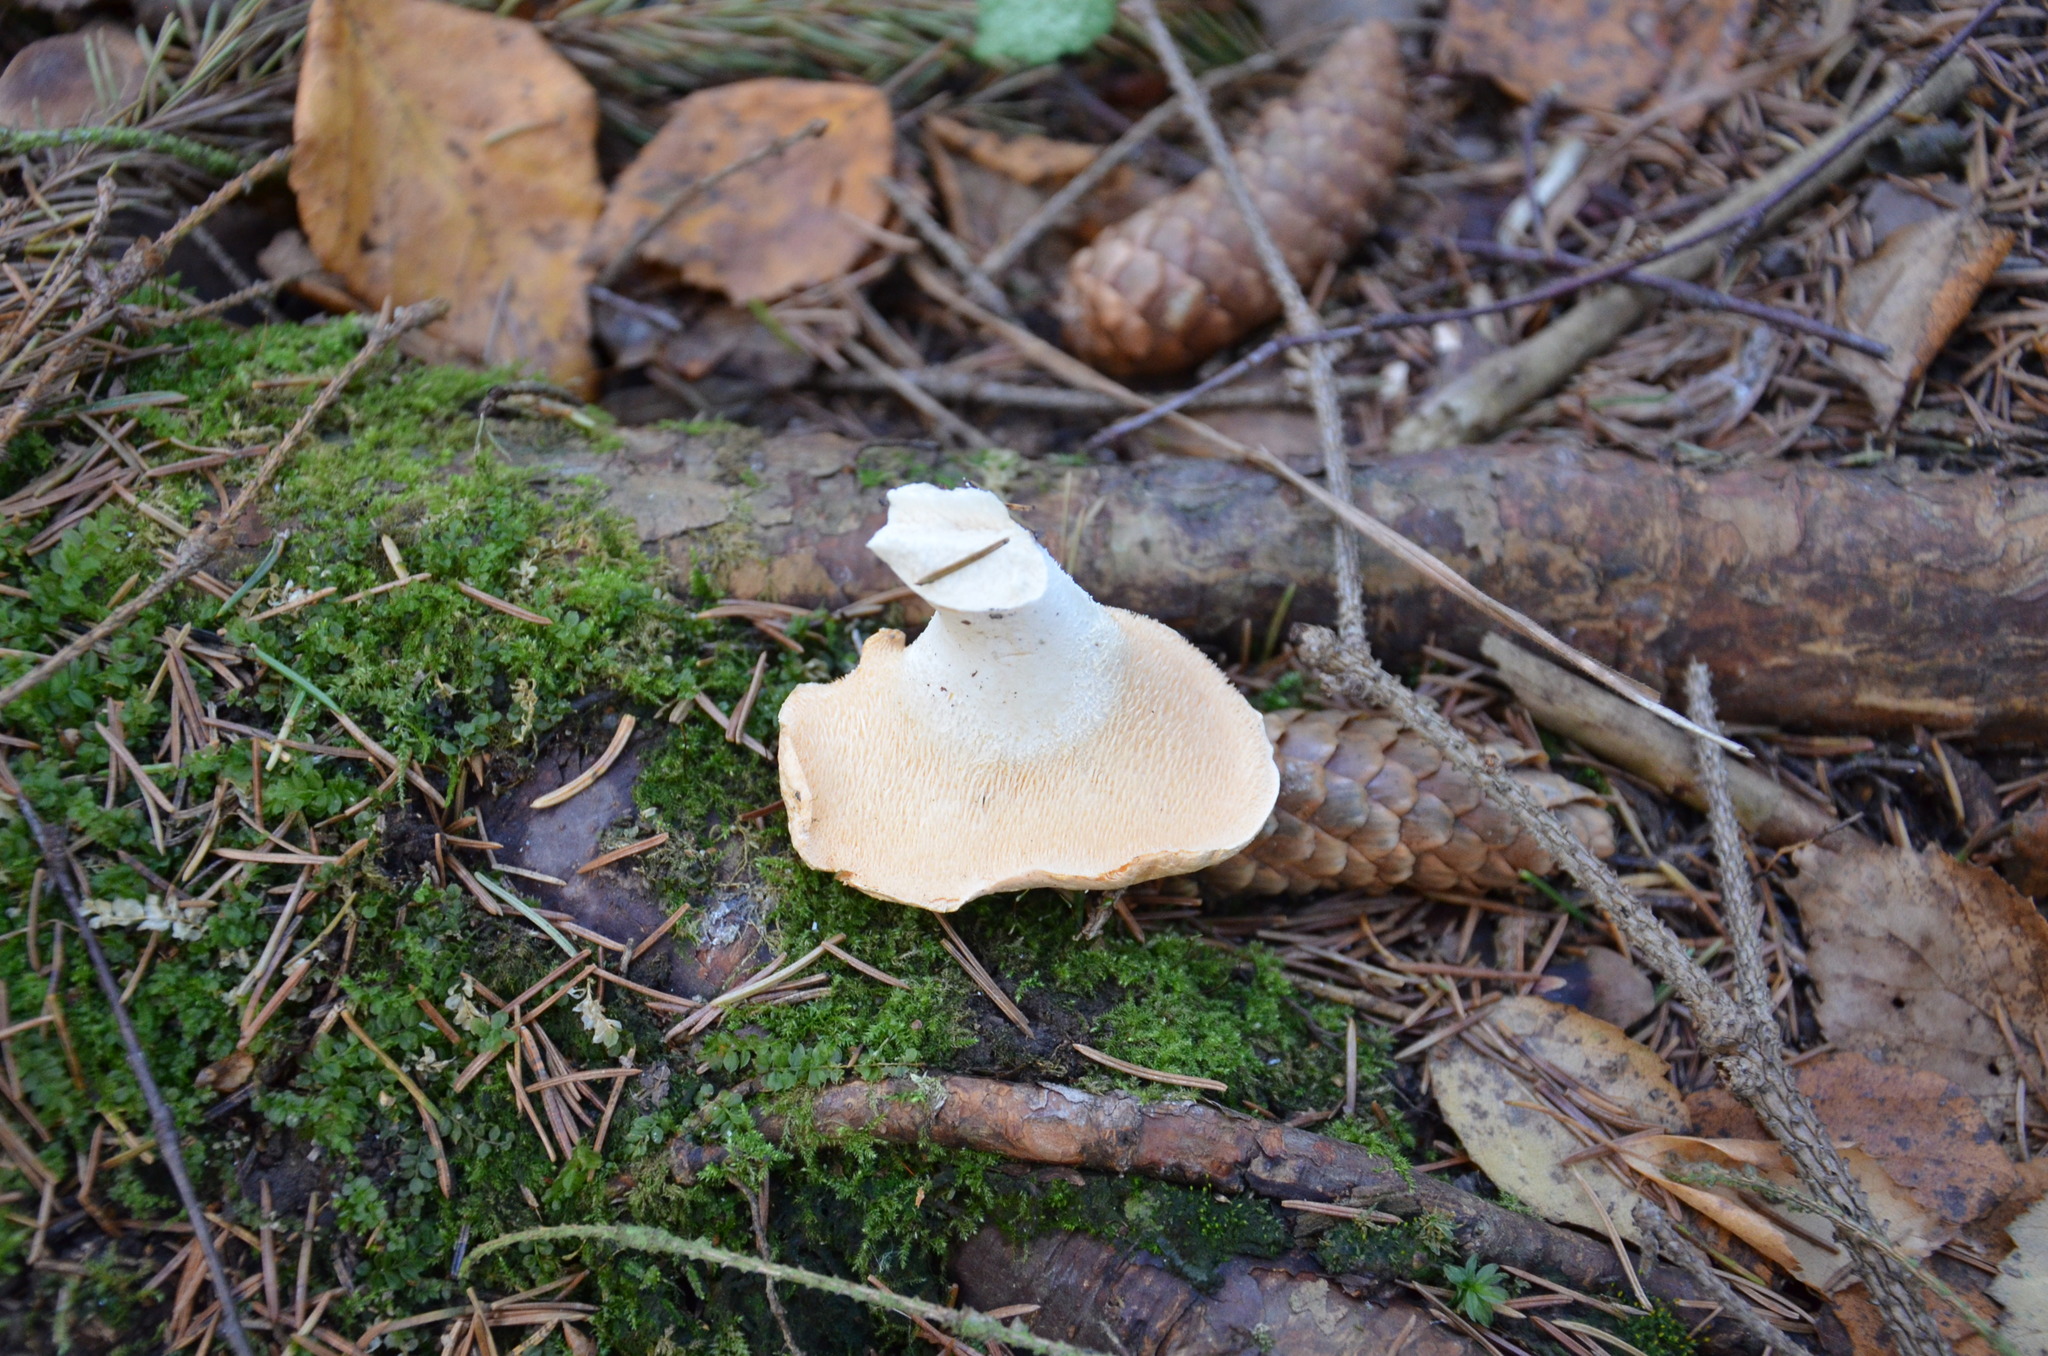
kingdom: Fungi
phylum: Basidiomycota
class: Agaricomycetes
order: Cantharellales
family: Hydnaceae
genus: Hydnum
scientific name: Hydnum repandum
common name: Wood hedgehog
